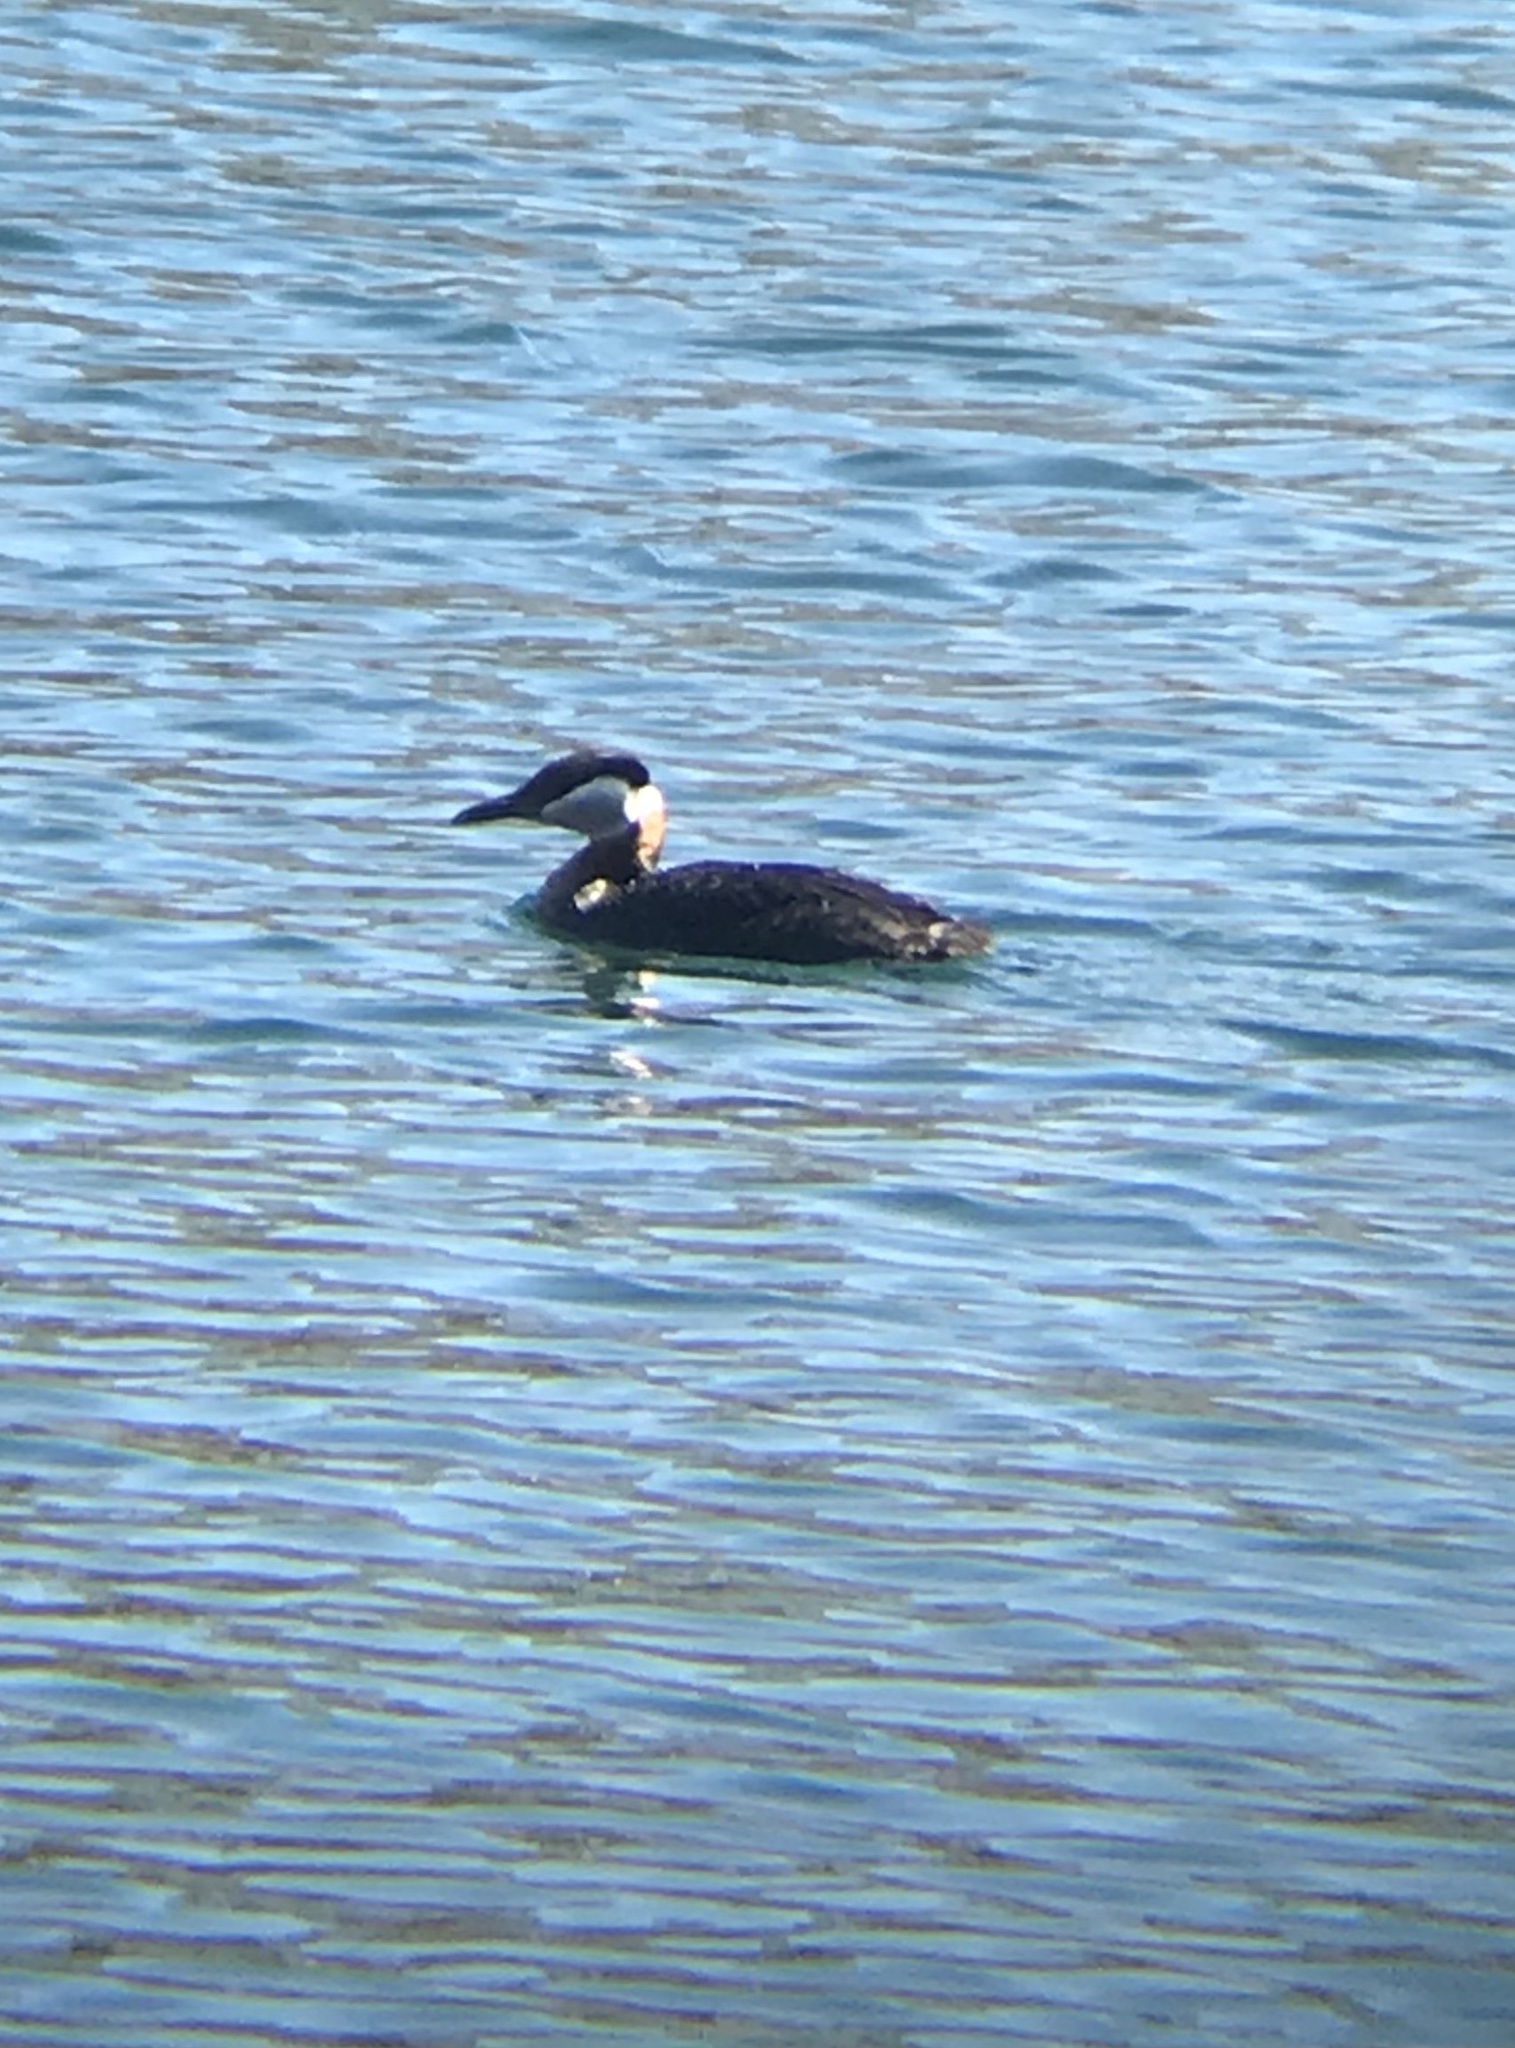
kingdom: Animalia
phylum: Chordata
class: Aves
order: Podicipediformes
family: Podicipedidae
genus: Podiceps
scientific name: Podiceps grisegena
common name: Red-necked grebe
